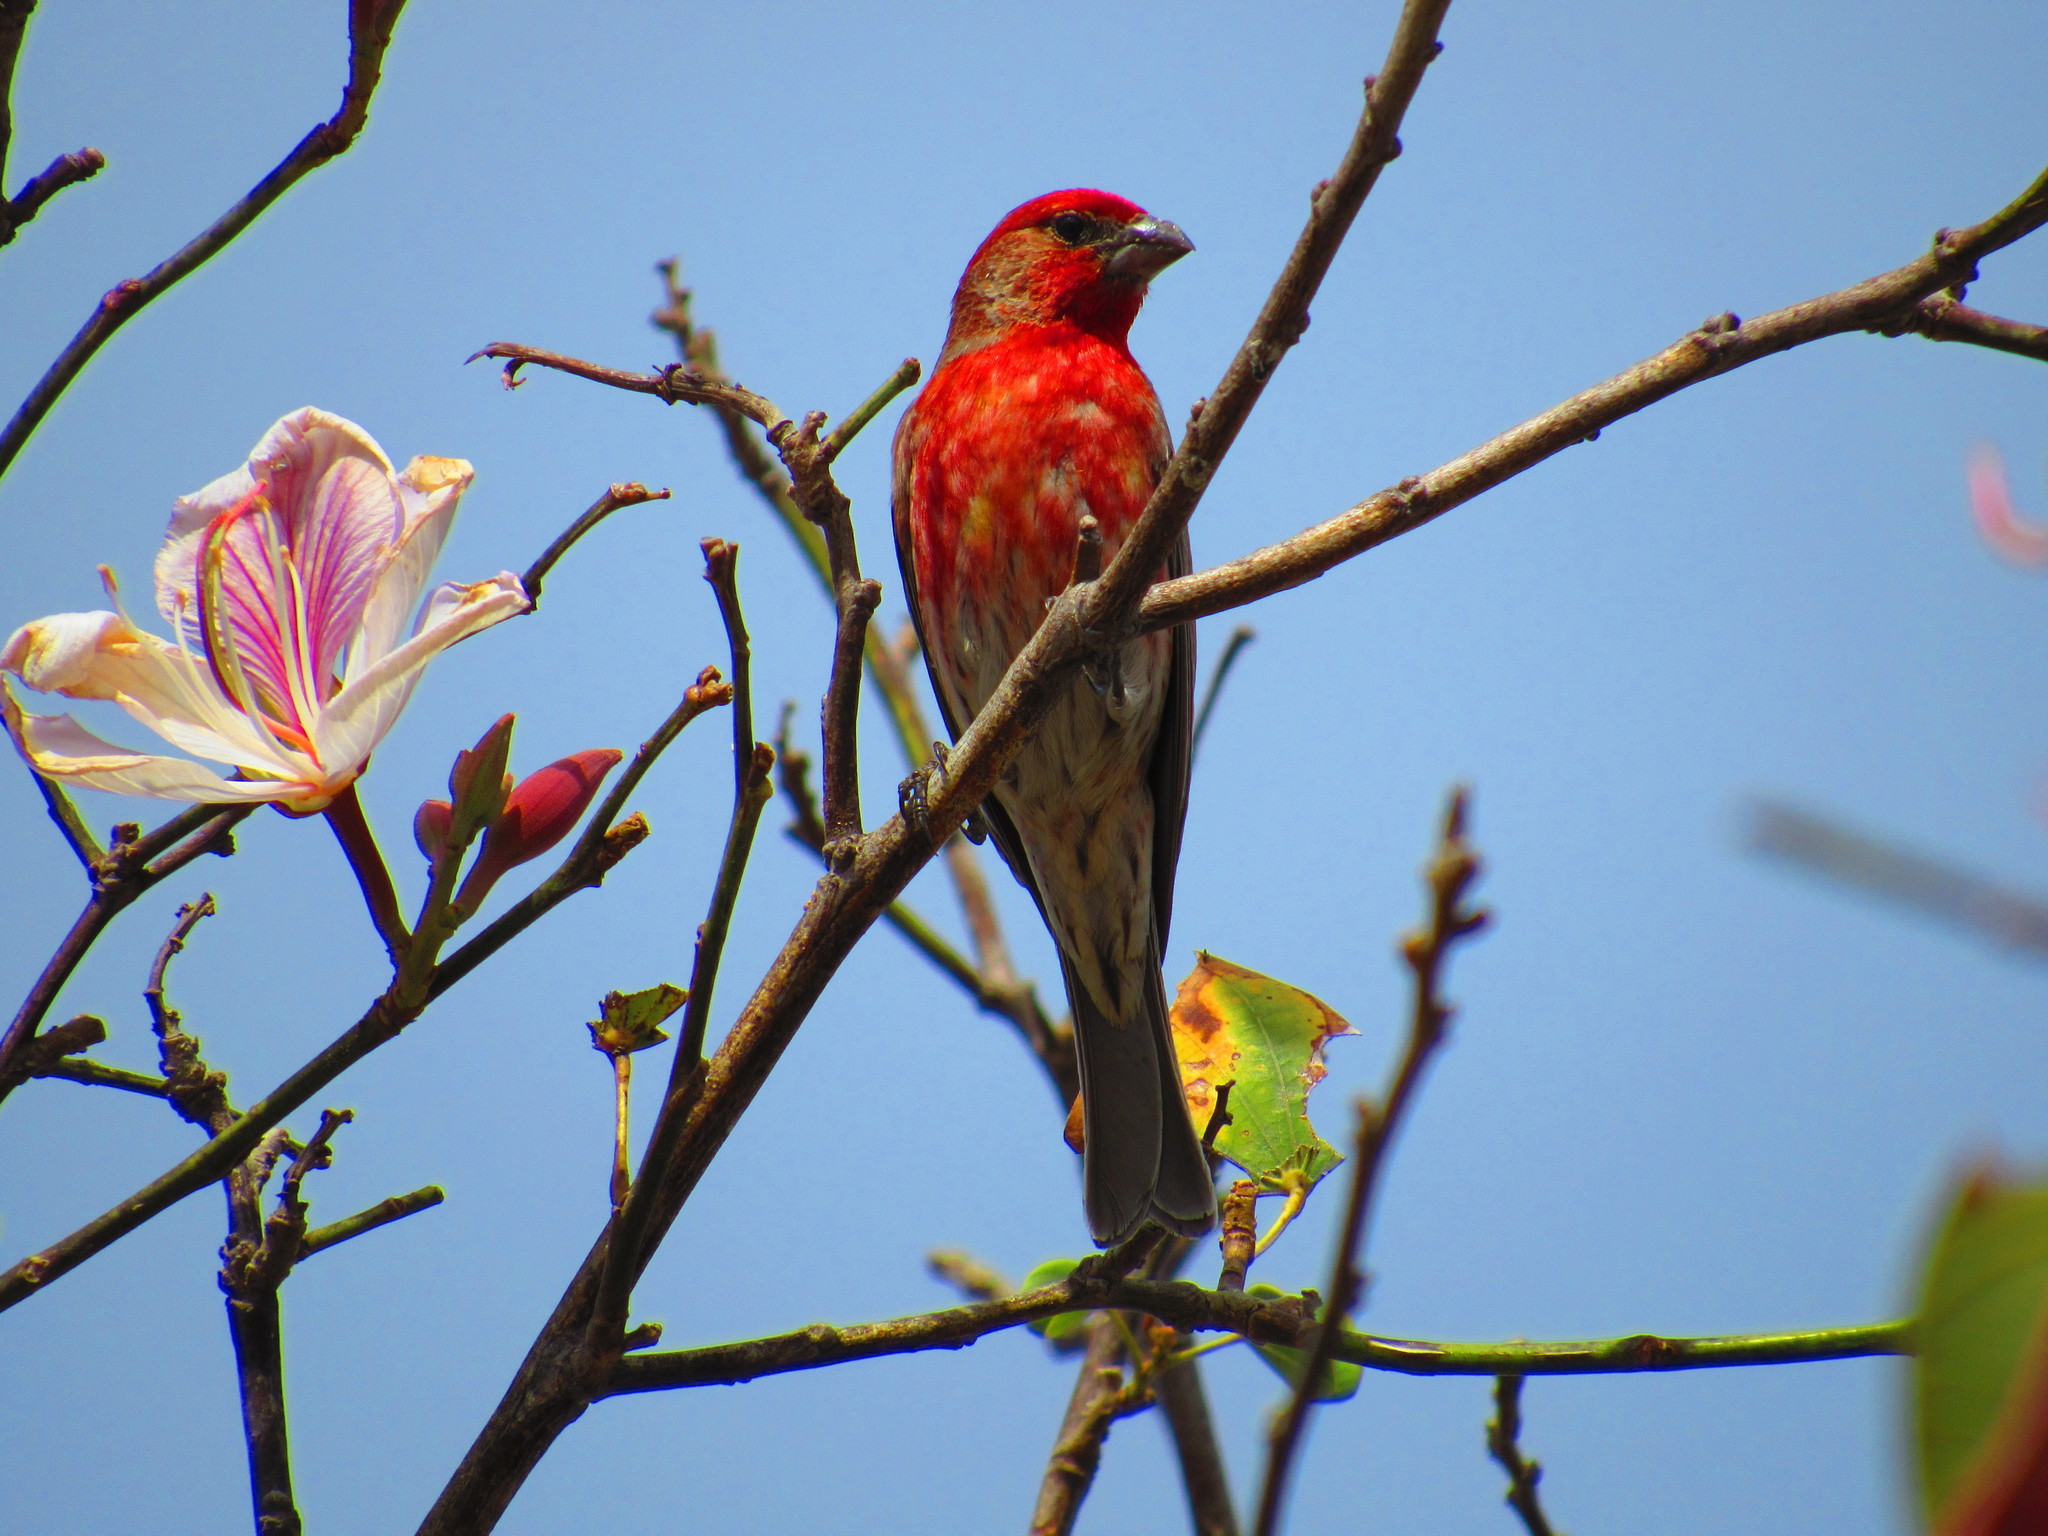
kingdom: Animalia
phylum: Chordata
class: Aves
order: Passeriformes
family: Fringillidae
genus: Haemorhous
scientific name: Haemorhous mexicanus
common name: House finch
